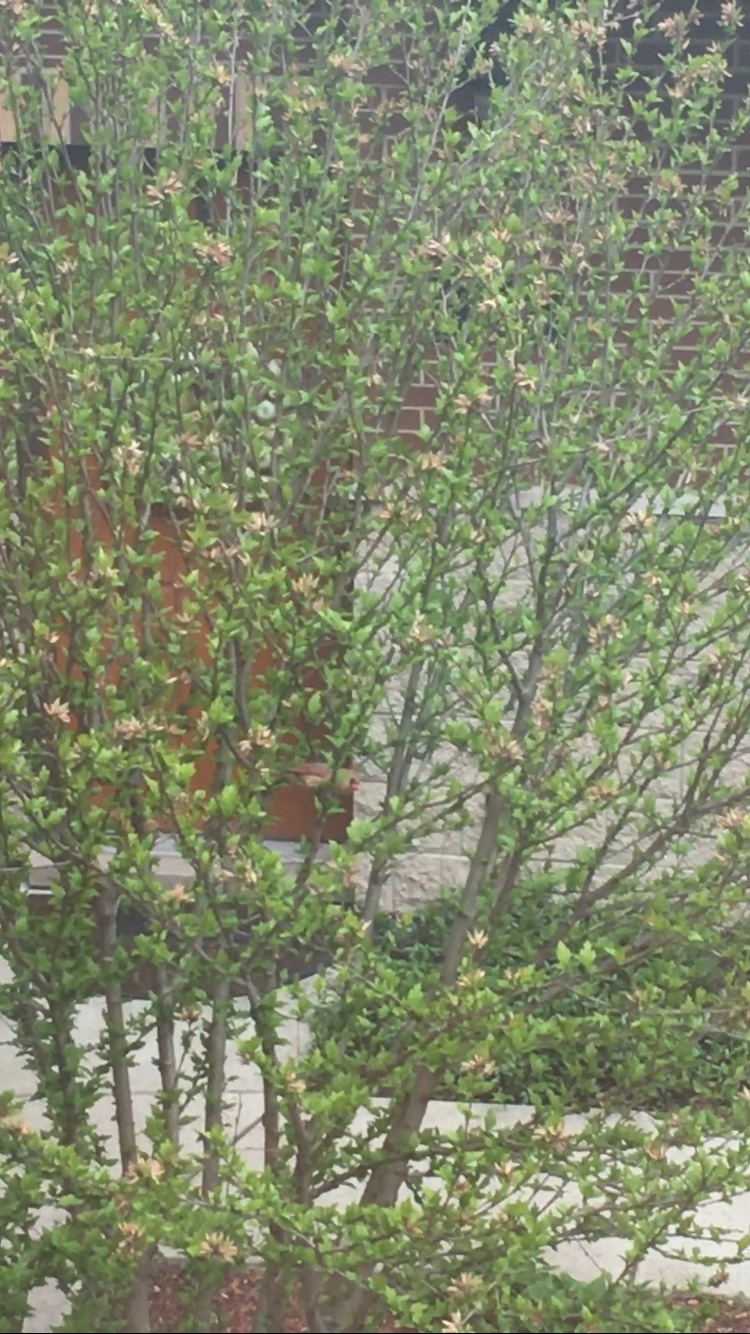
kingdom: Animalia
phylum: Chordata
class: Aves
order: Passeriformes
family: Cardinalidae
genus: Cardinalis
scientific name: Cardinalis cardinalis
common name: Northern cardinal
